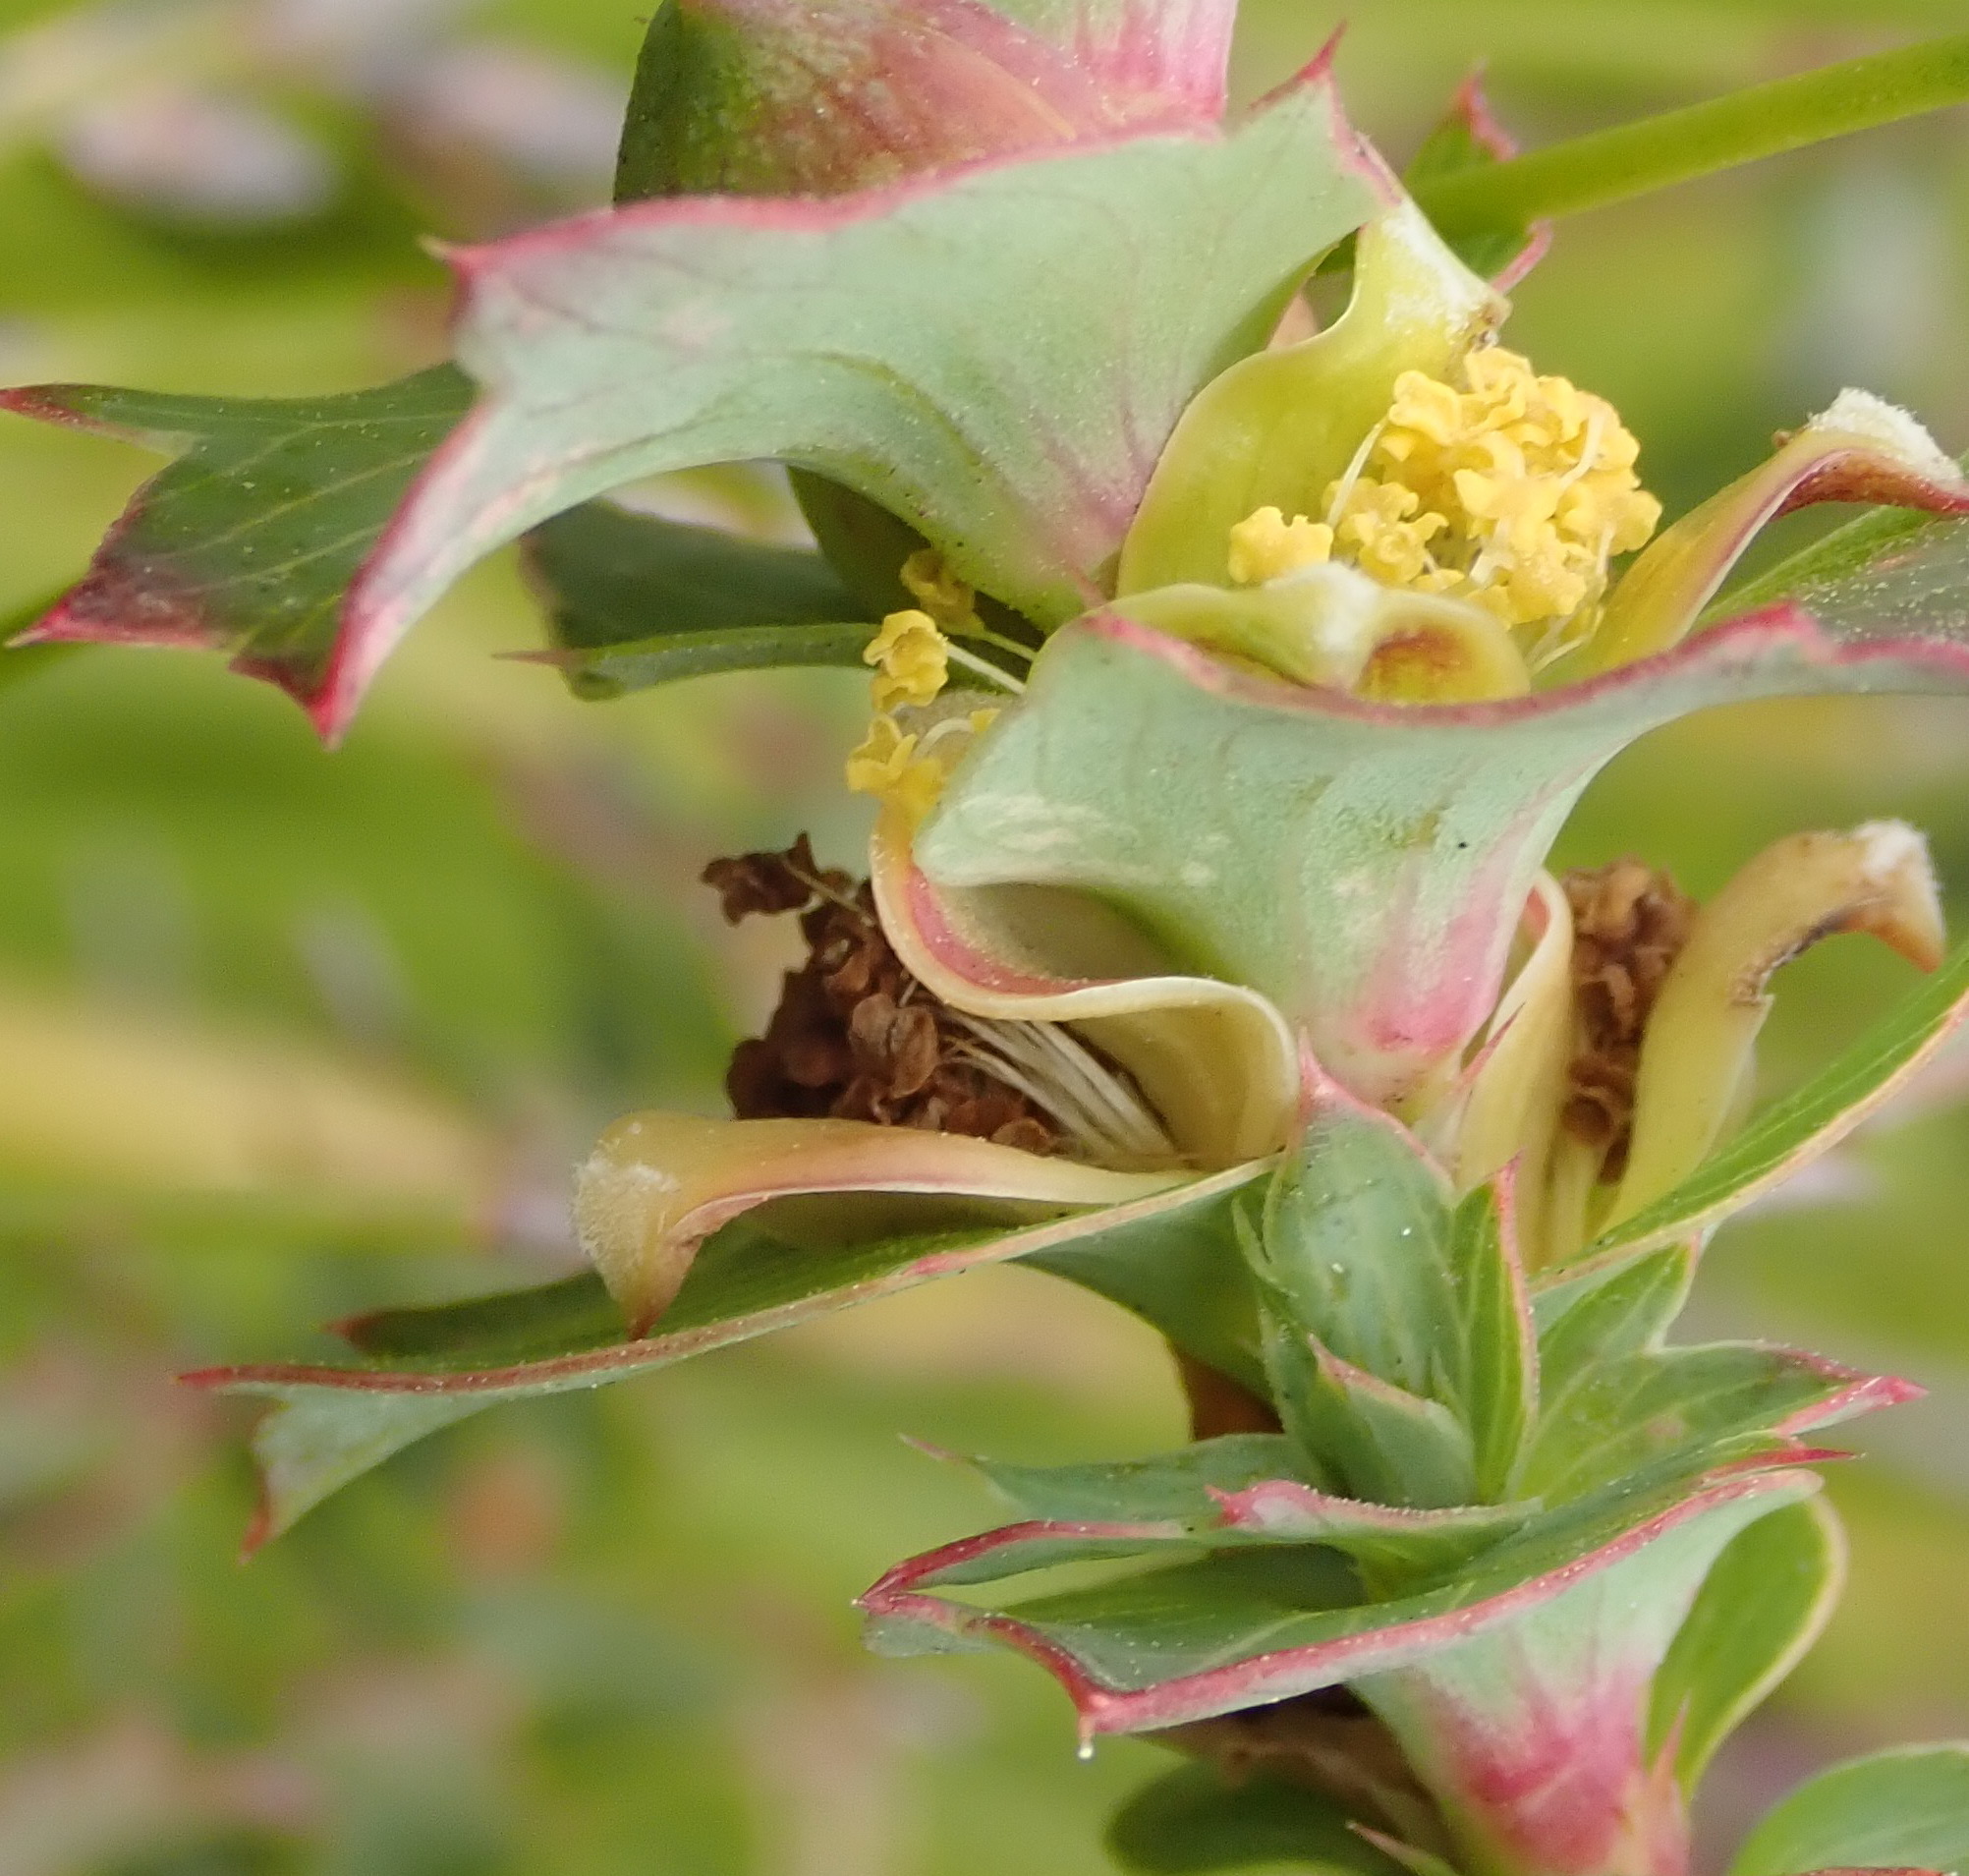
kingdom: Plantae
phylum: Tracheophyta
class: Magnoliopsida
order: Rosales
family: Rosaceae
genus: Cliffortia
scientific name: Cliffortia ilicifolia
